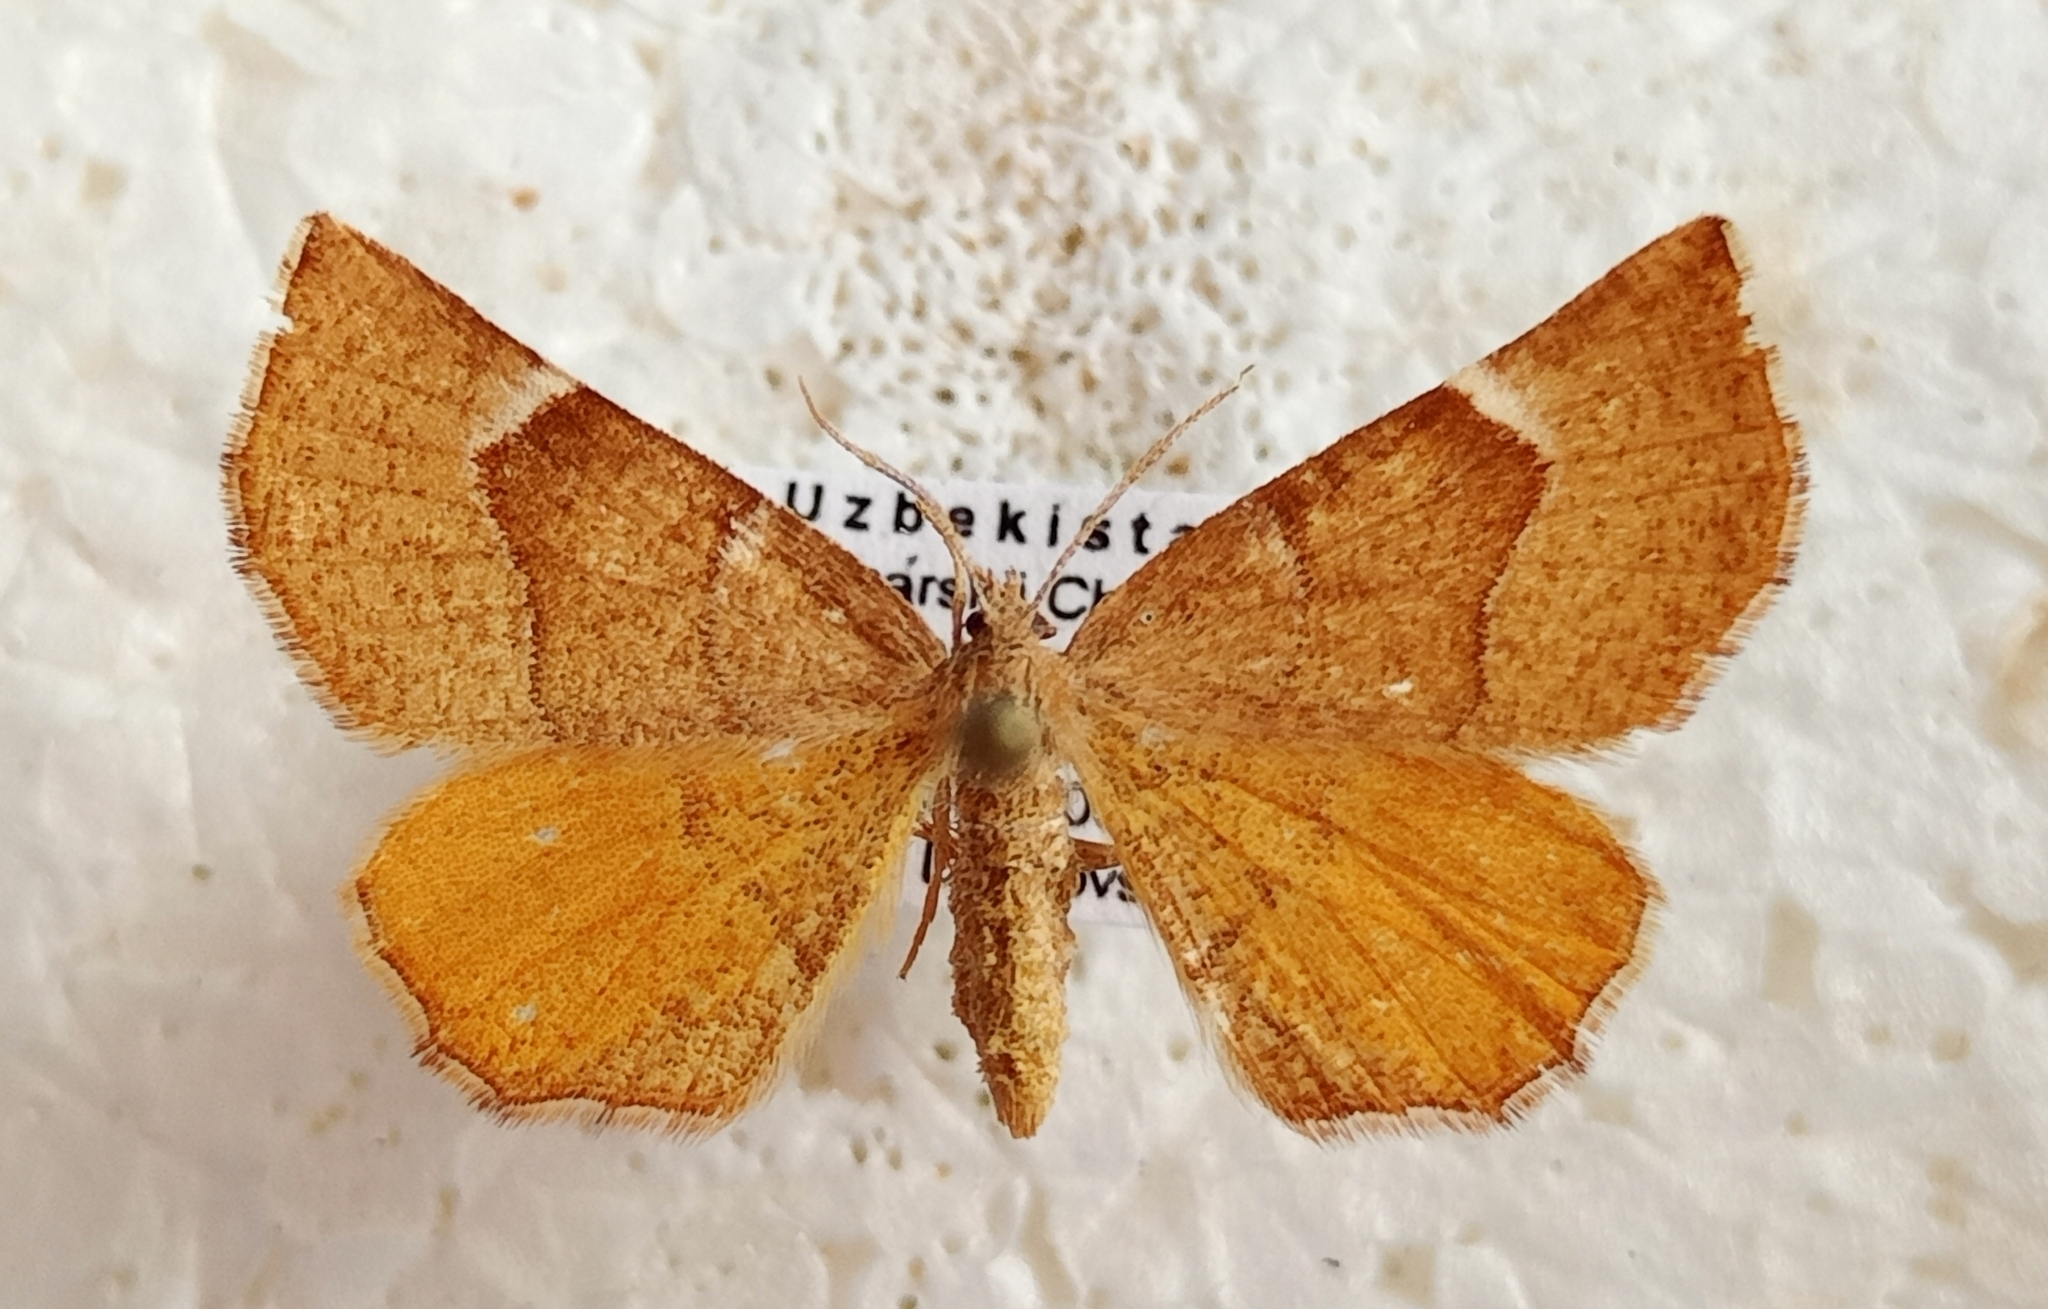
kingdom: Animalia
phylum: Arthropoda
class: Insecta
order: Lepidoptera
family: Geometridae
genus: Plagodis
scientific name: Plagodis ochraceata
